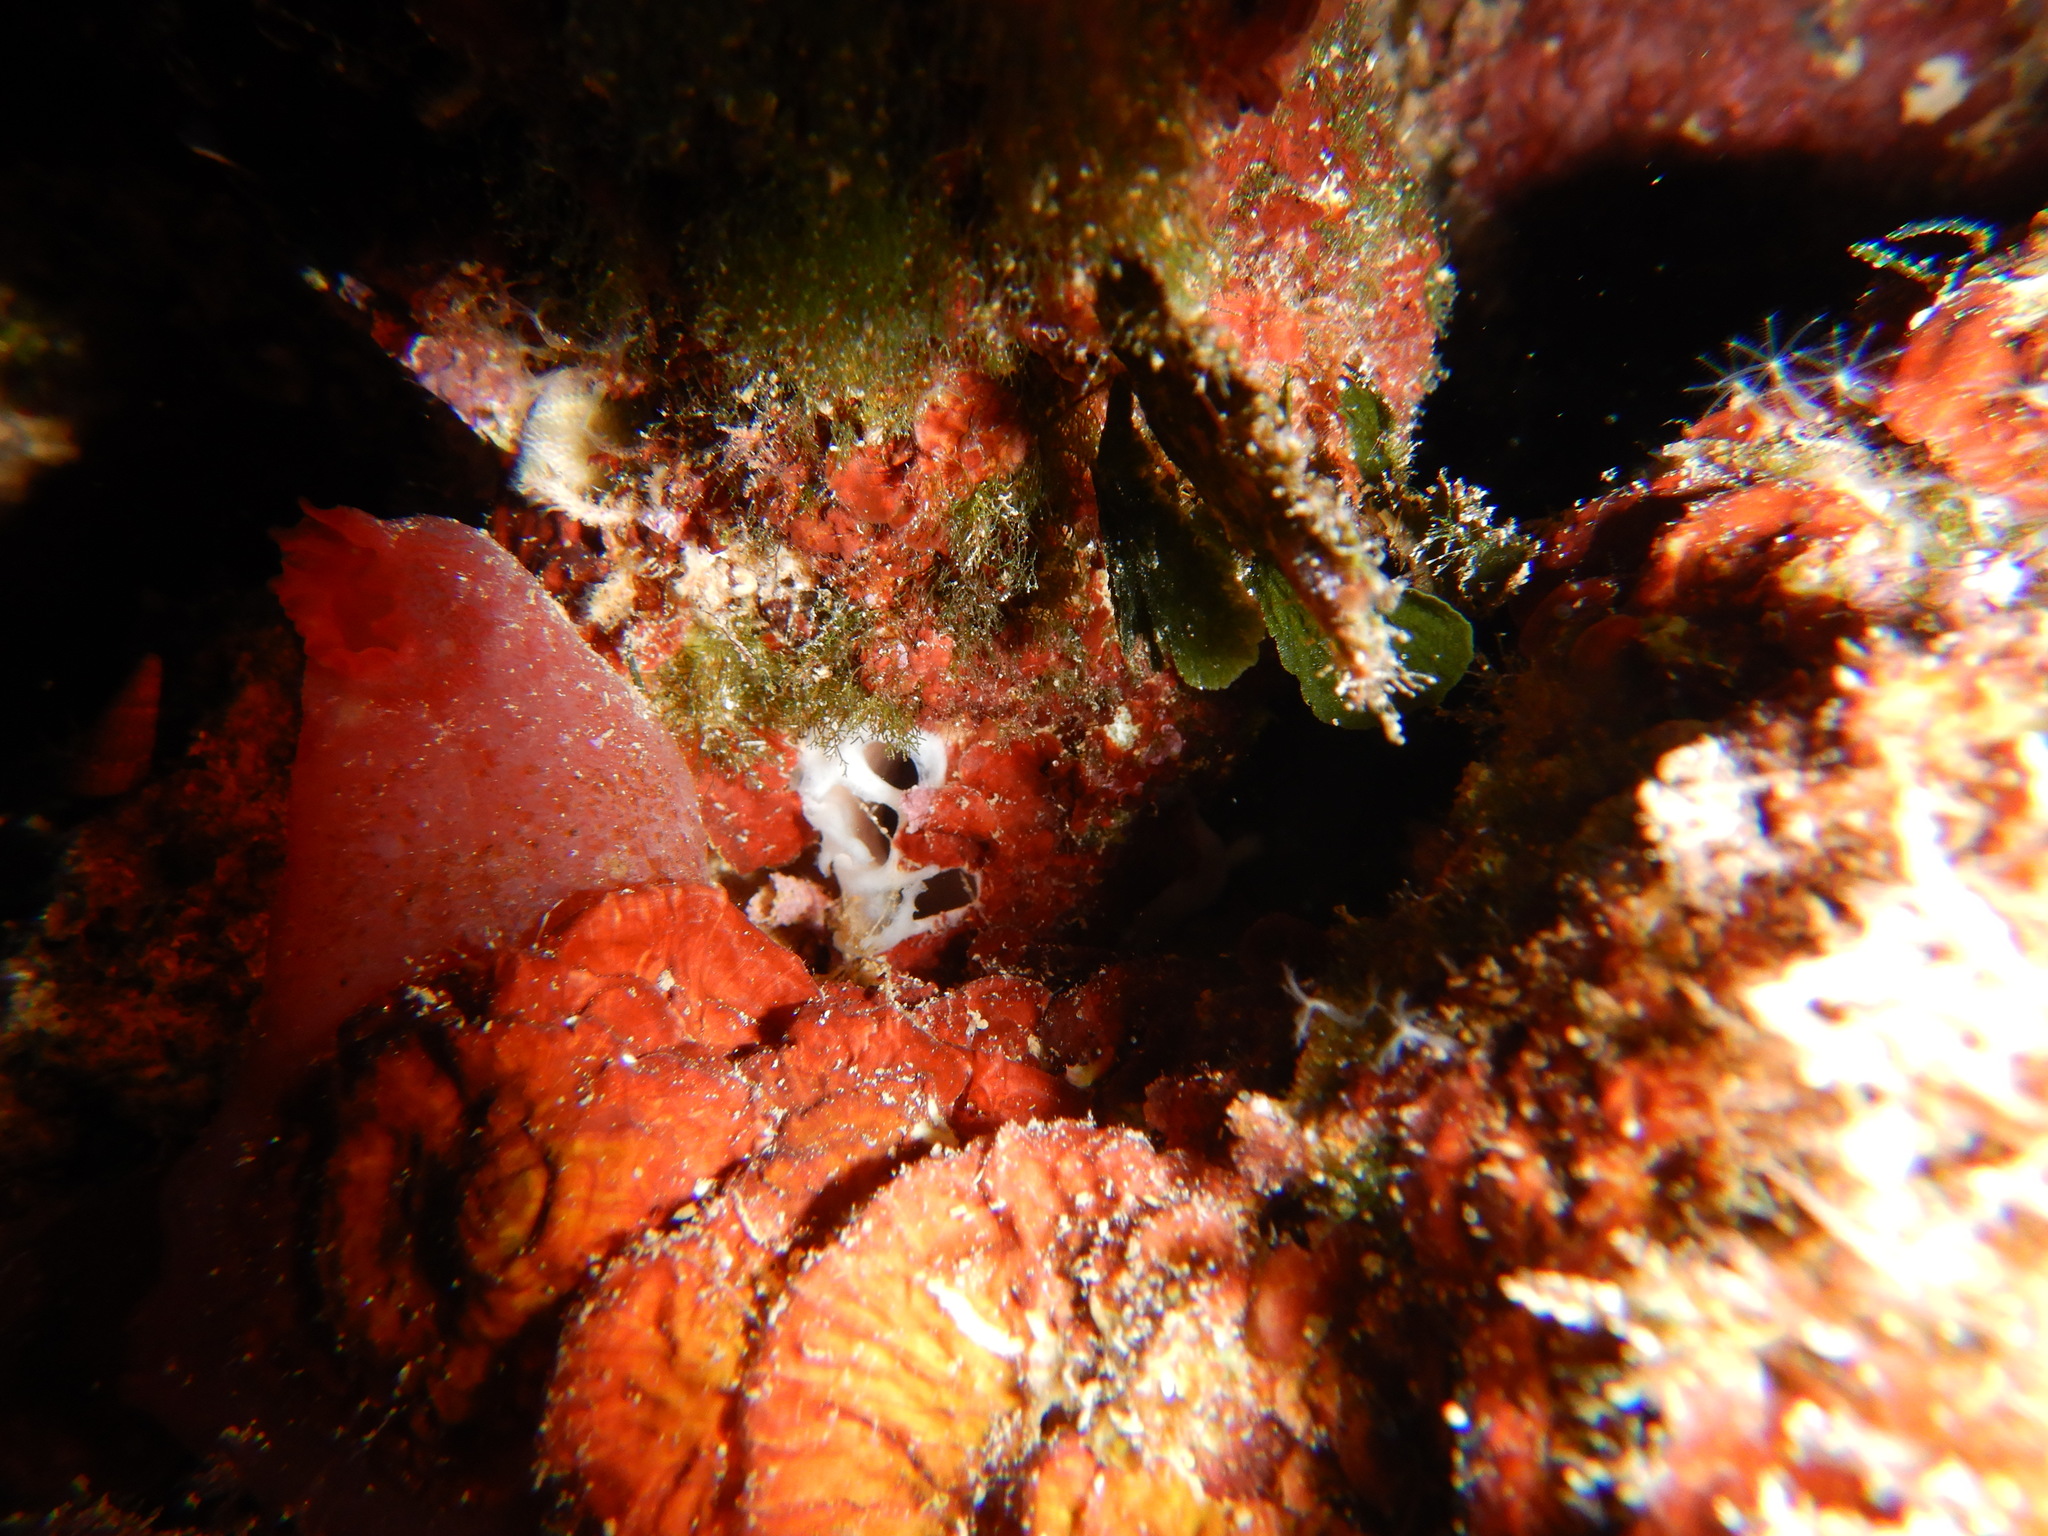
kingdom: Plantae
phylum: Chlorophyta
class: Ulvophyceae
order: Bryopsidales
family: Codiaceae
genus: Codium
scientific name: Codium Flabellia petiolata
